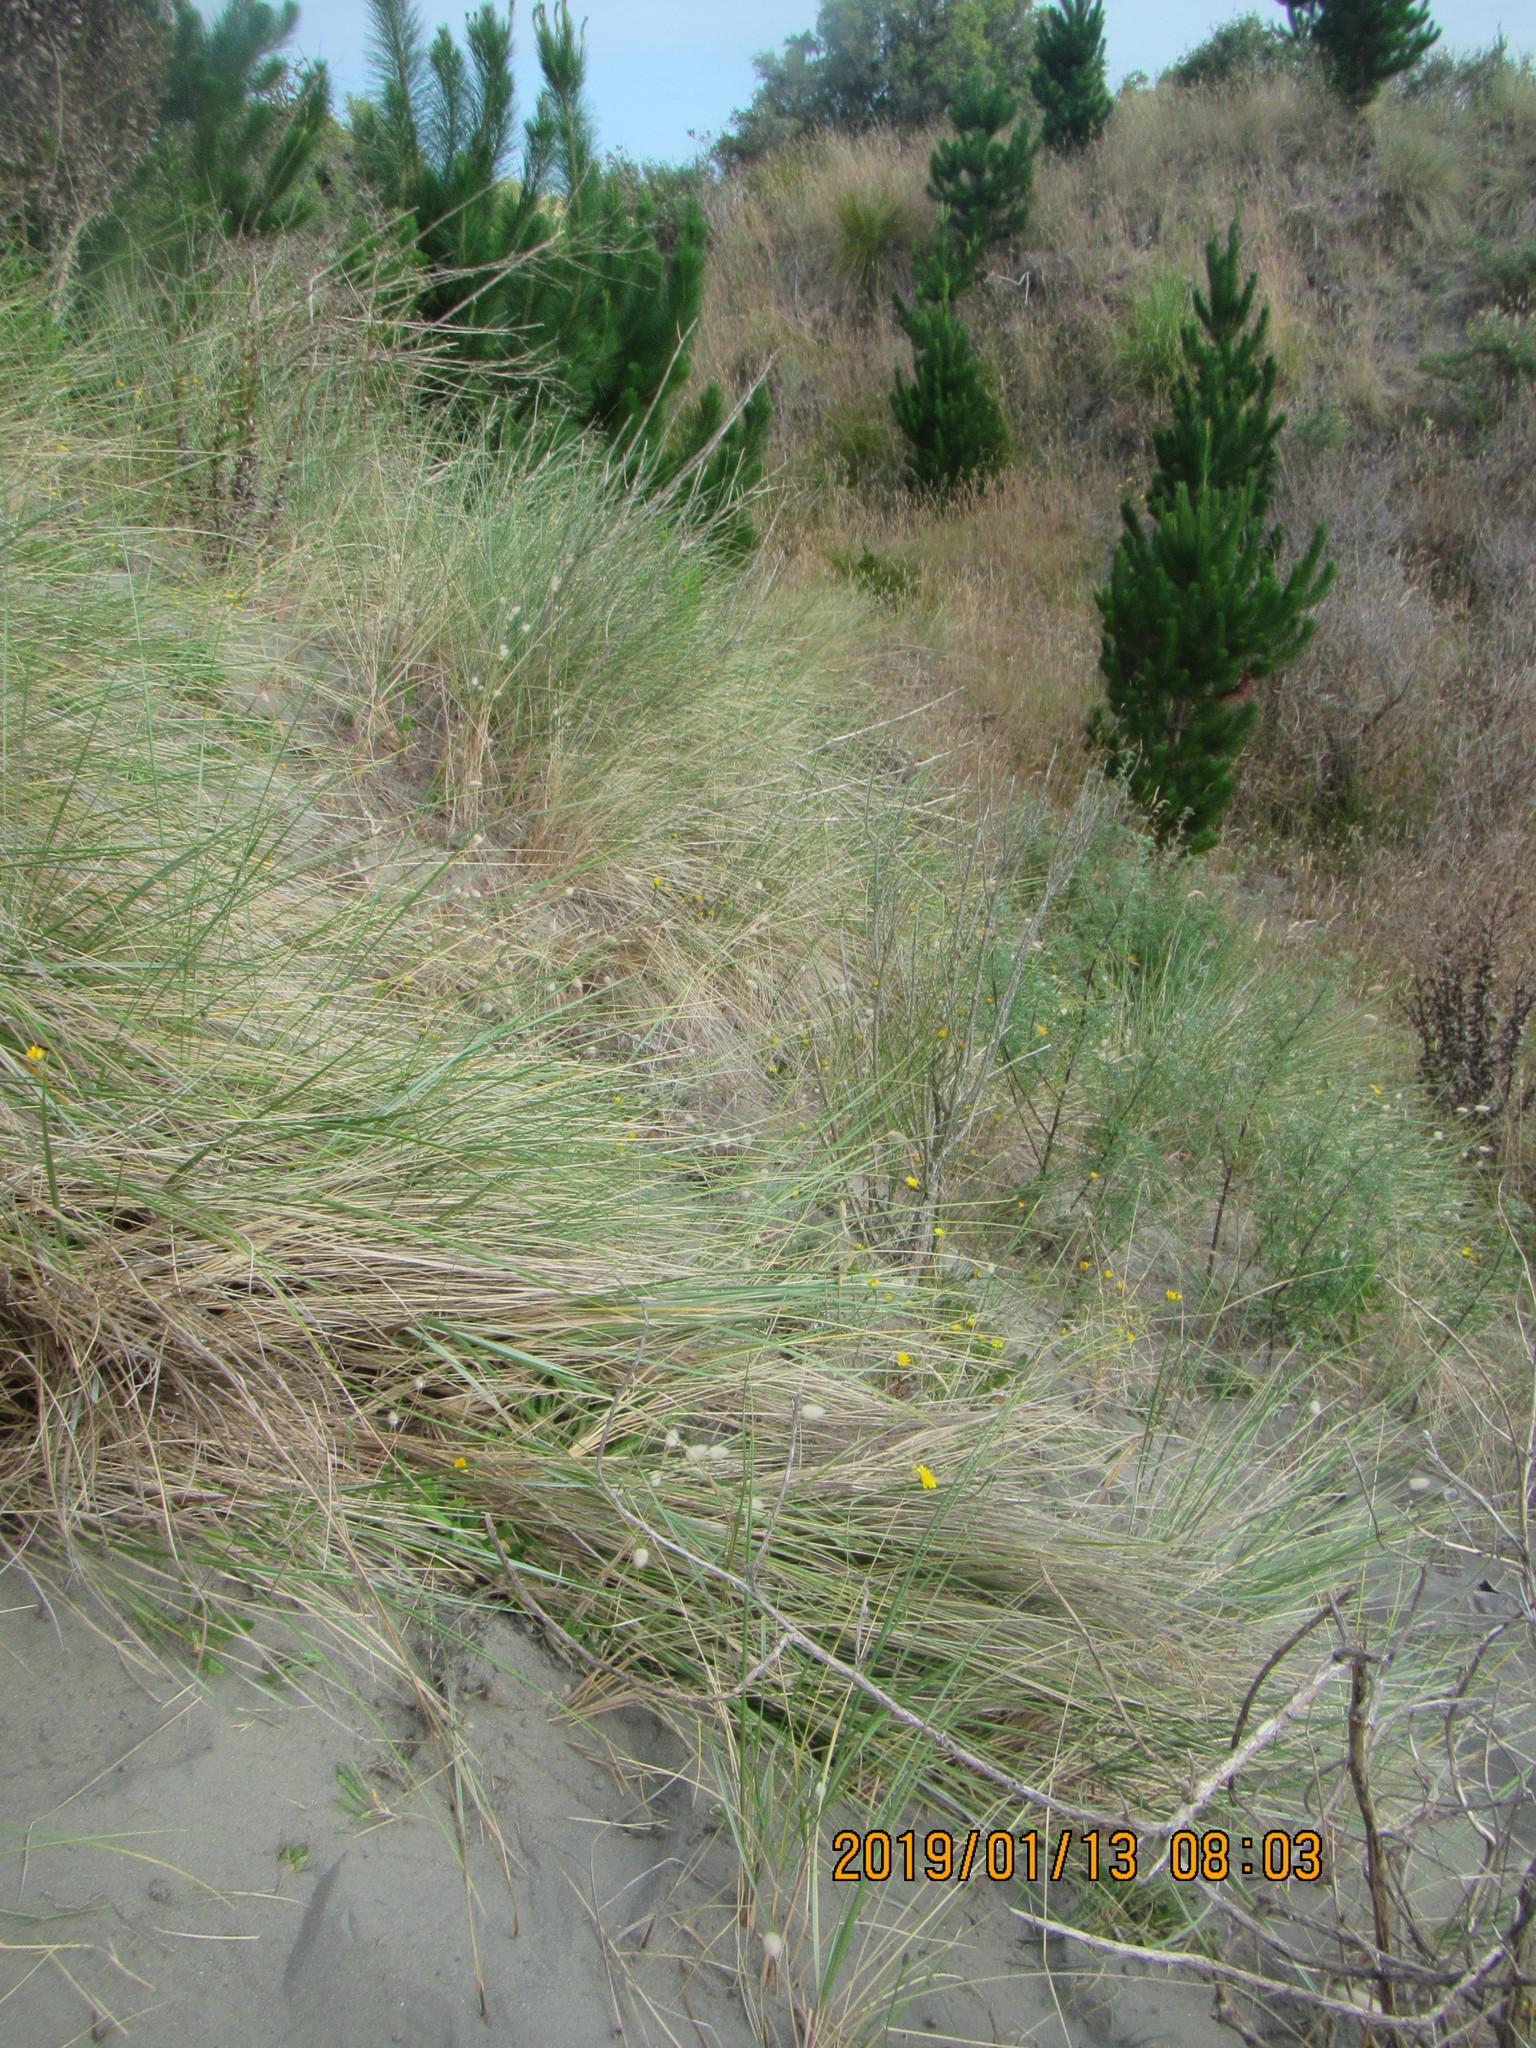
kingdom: Animalia
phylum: Arthropoda
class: Insecta
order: Blattodea
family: Blattidae
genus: Maoriblatta
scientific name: Maoriblatta novaeseelandiae
